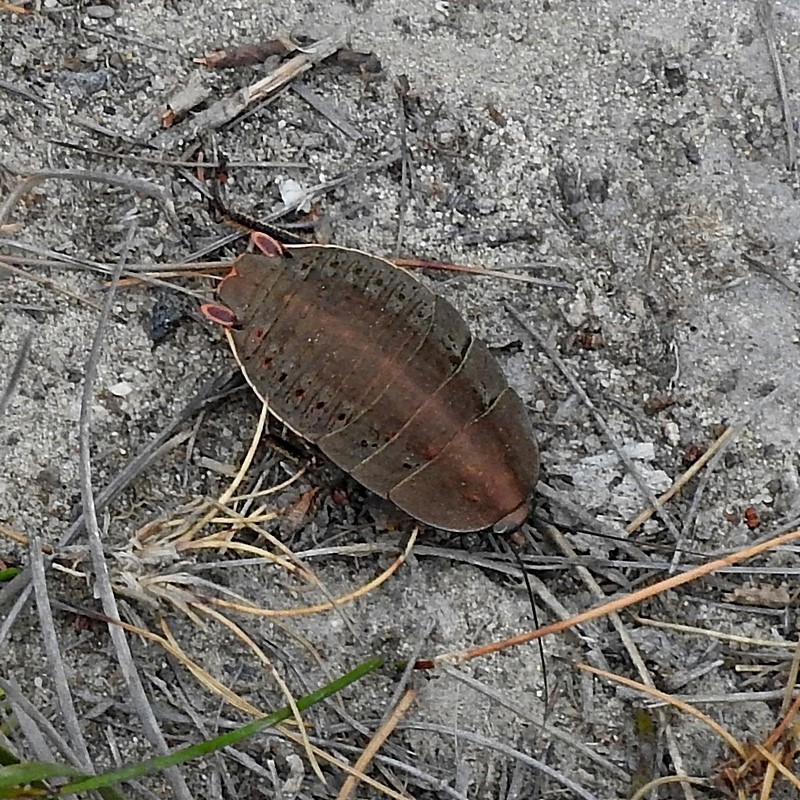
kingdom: Animalia
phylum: Arthropoda
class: Insecta
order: Blattodea
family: Blattidae
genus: Polyzosteria
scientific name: Polyzosteria aenea
